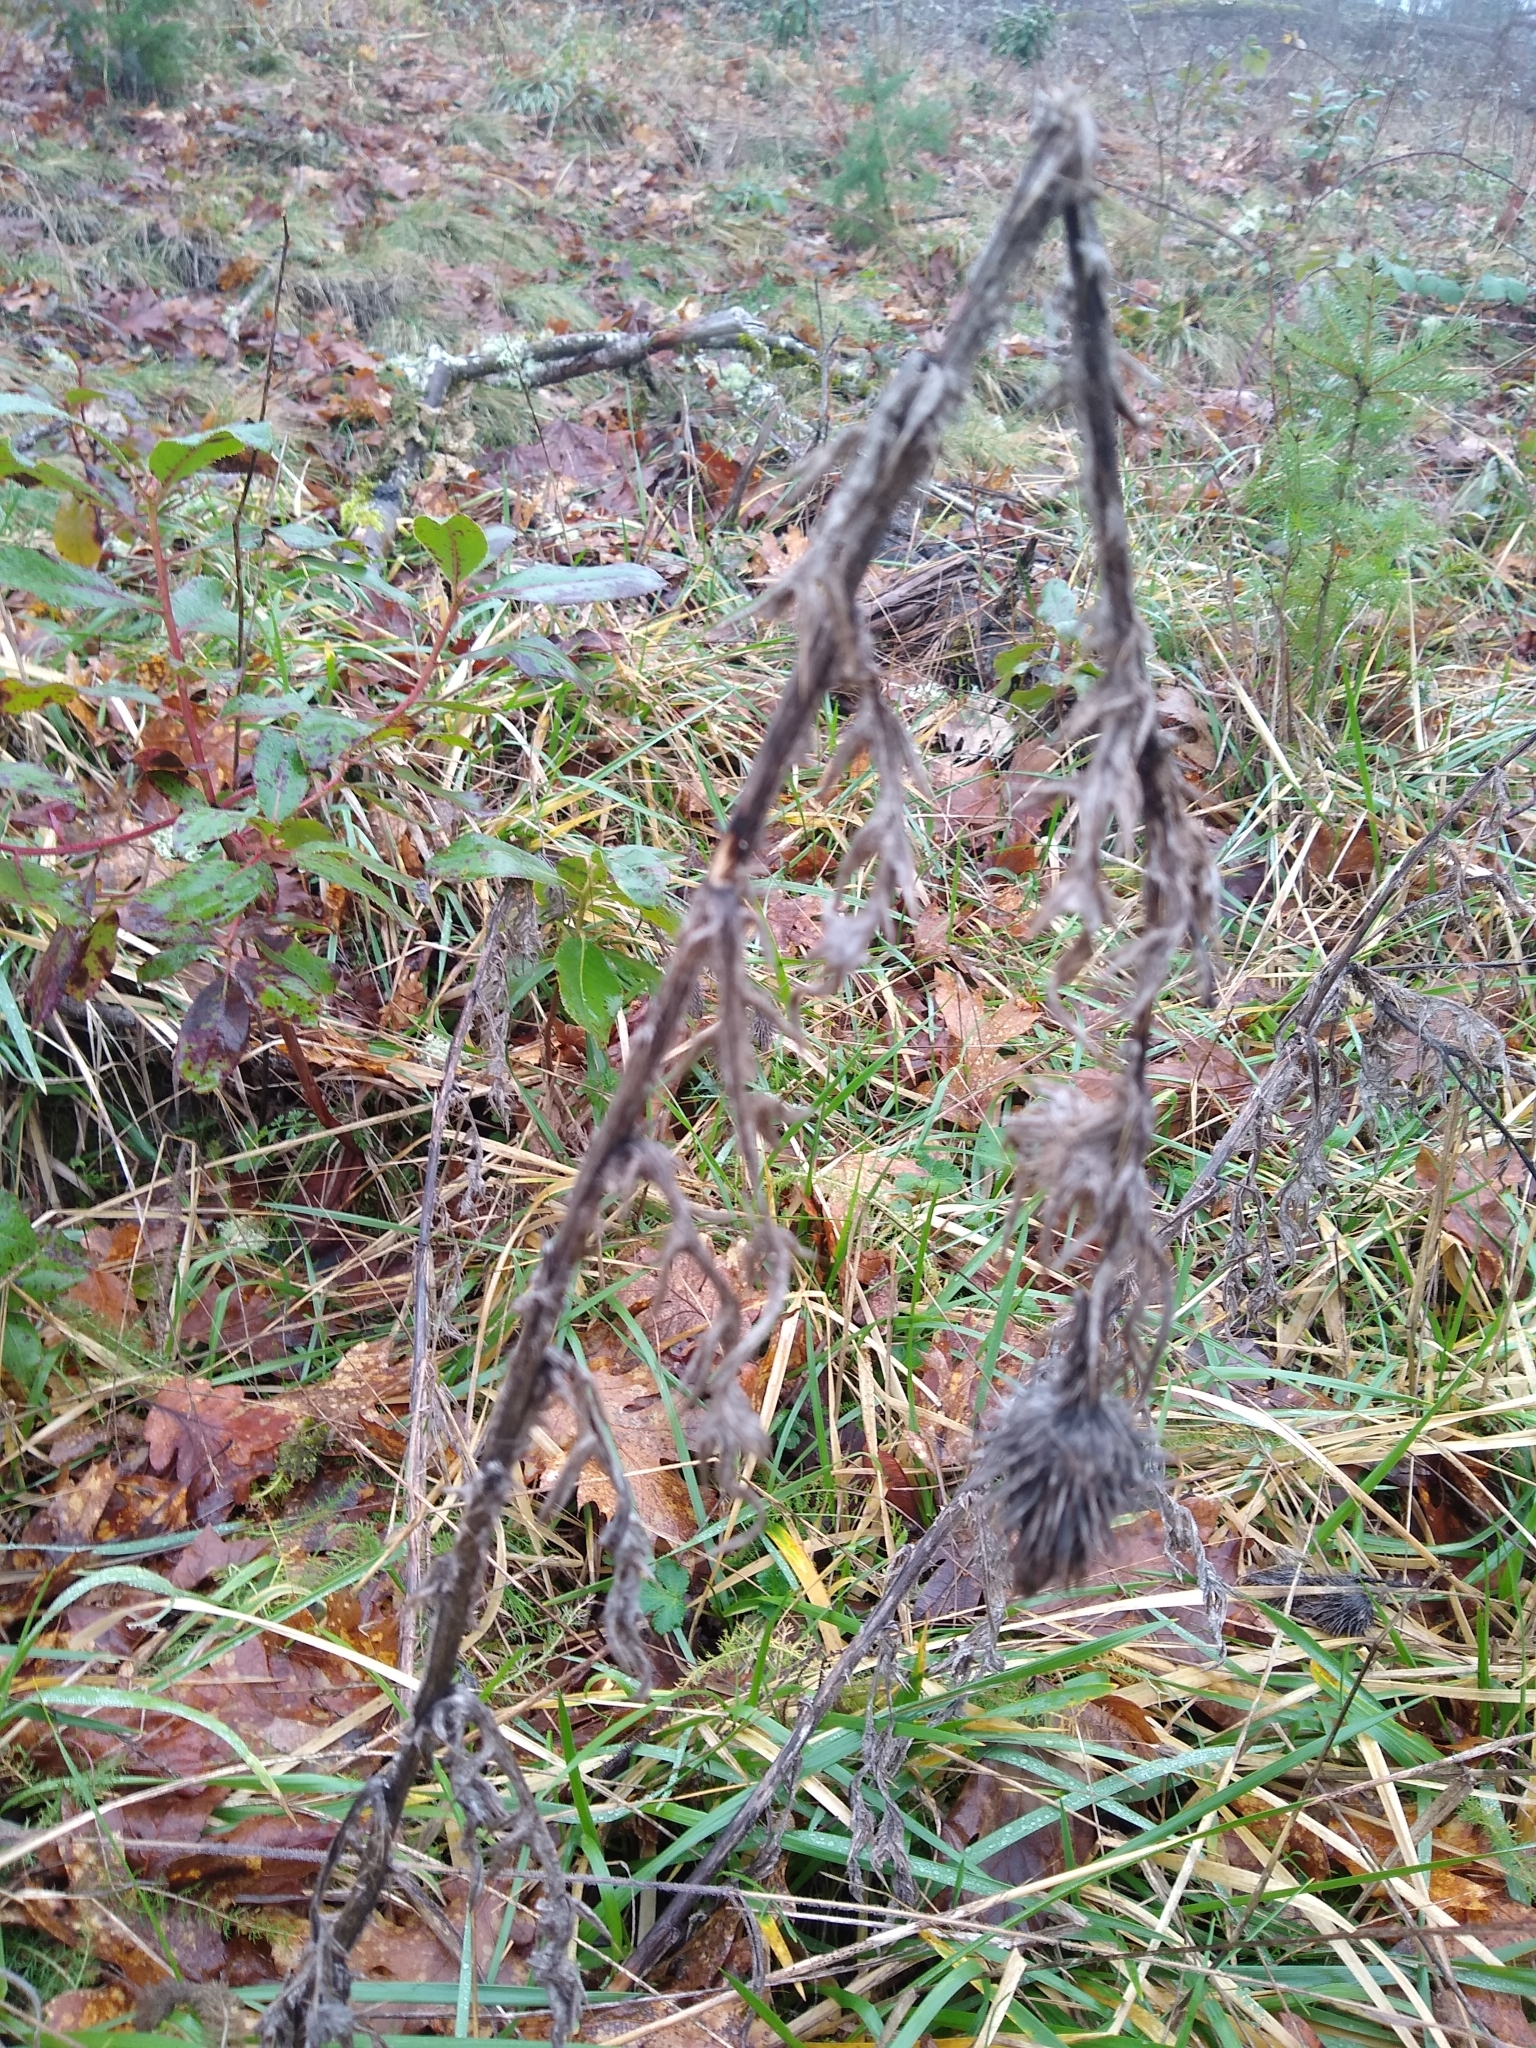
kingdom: Plantae
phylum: Tracheophyta
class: Magnoliopsida
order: Asterales
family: Asteraceae
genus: Cirsium
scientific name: Cirsium vulgare
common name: Bull thistle
